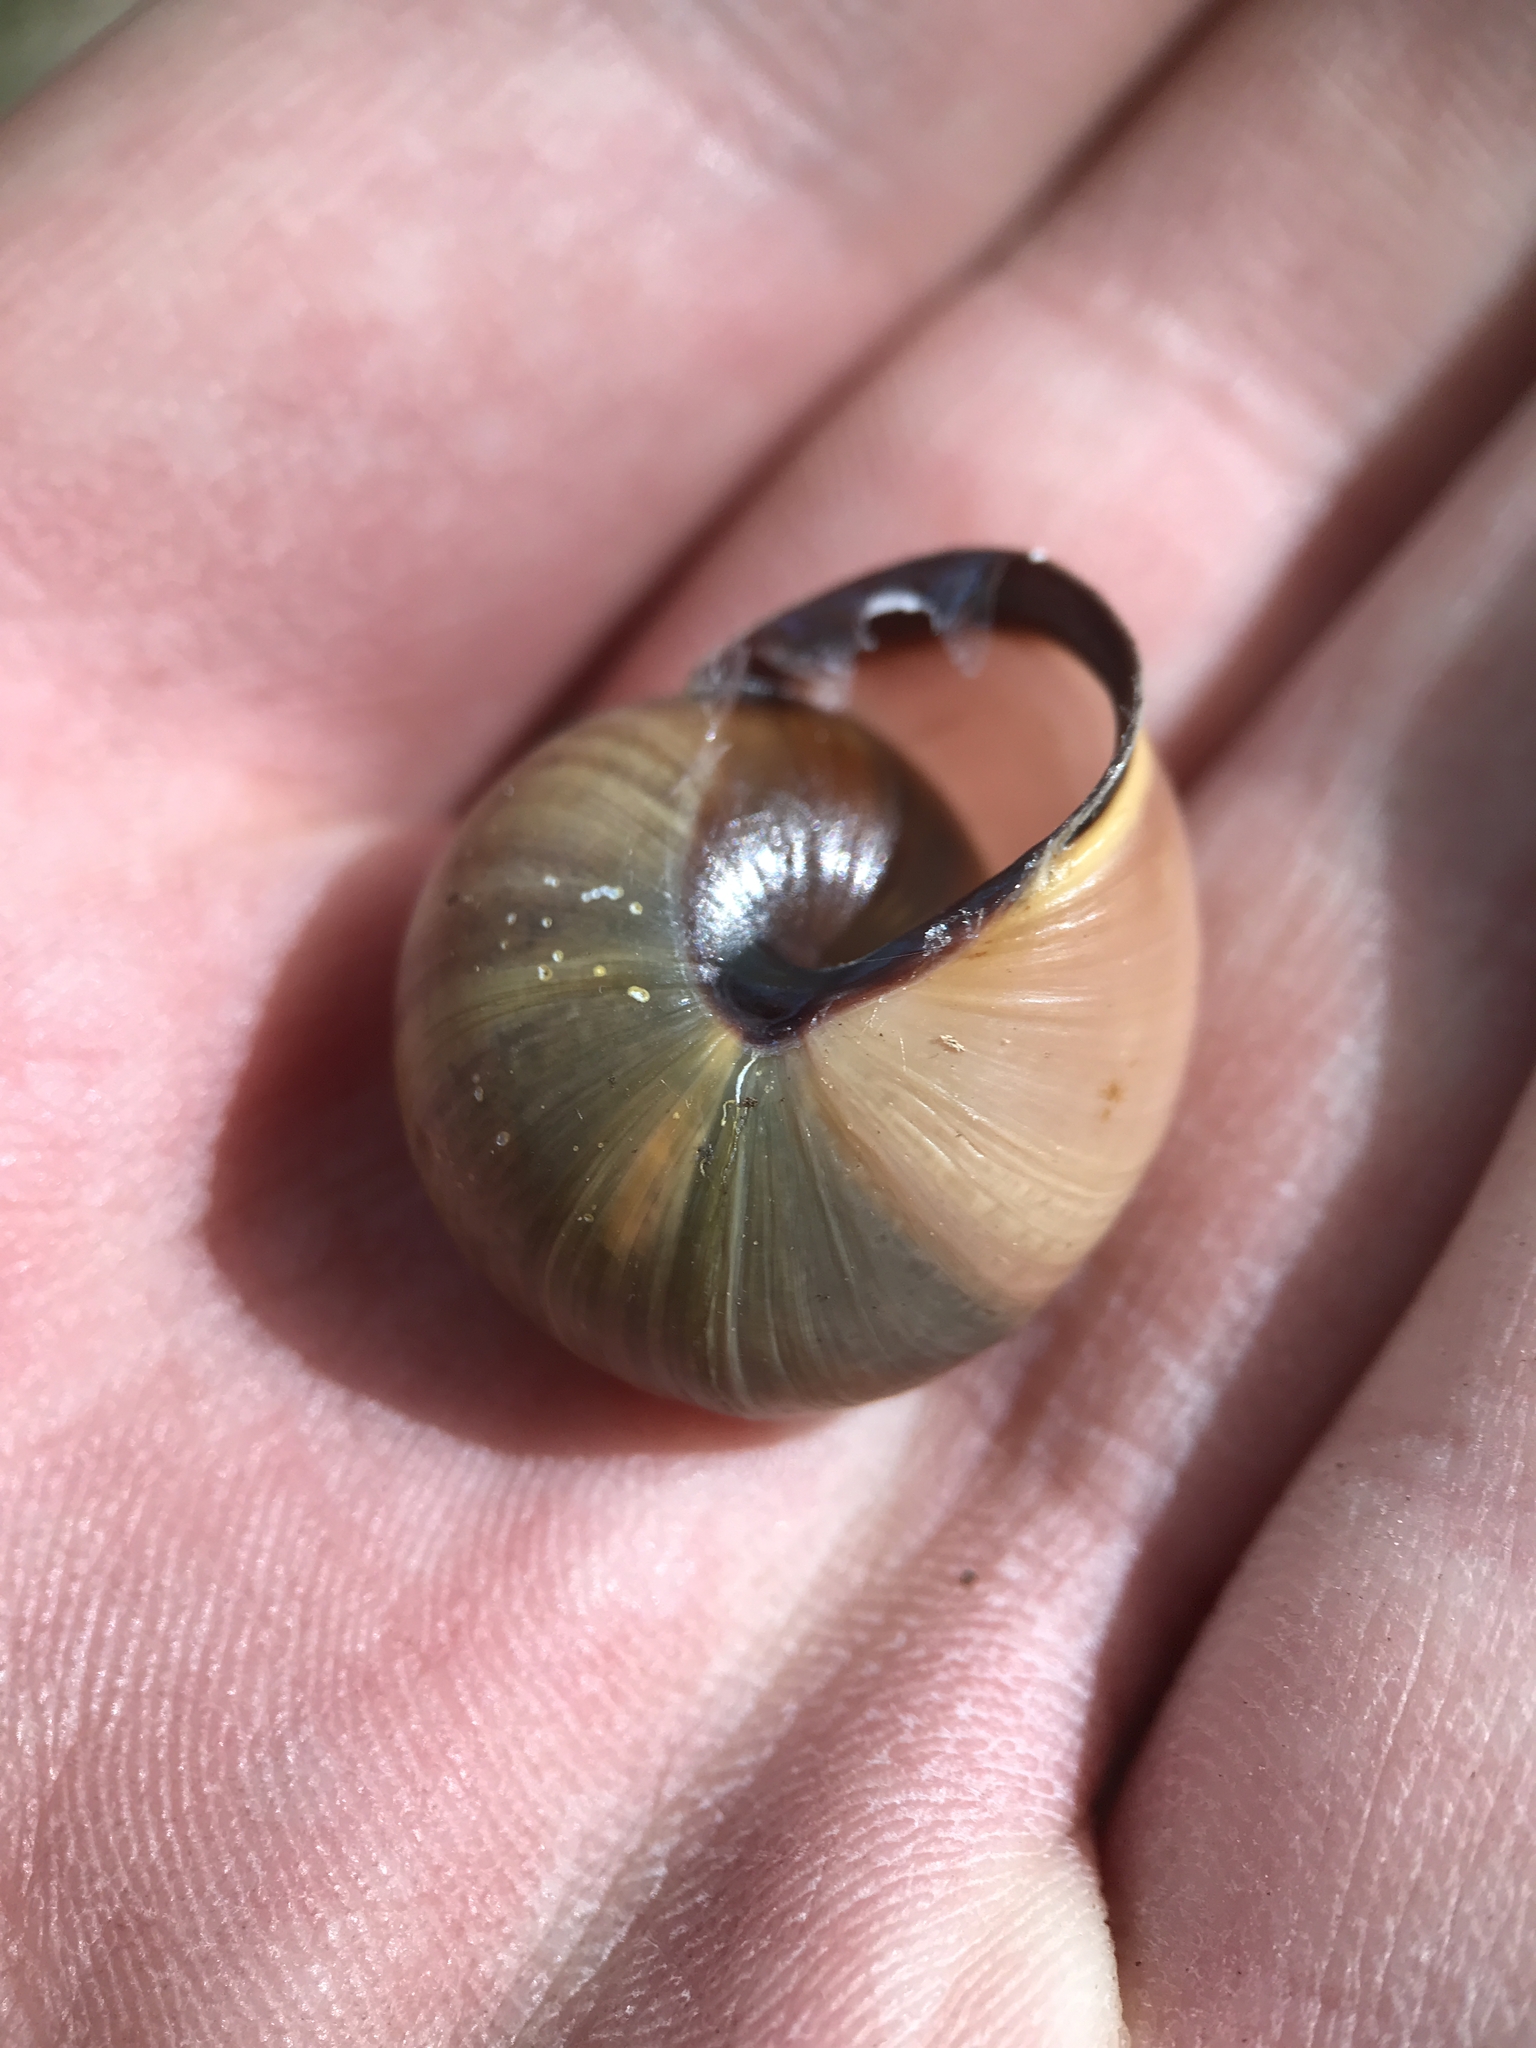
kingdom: Animalia
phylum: Mollusca
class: Gastropoda
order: Stylommatophora
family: Helicidae
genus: Cepaea
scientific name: Cepaea nemoralis
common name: Grovesnail
